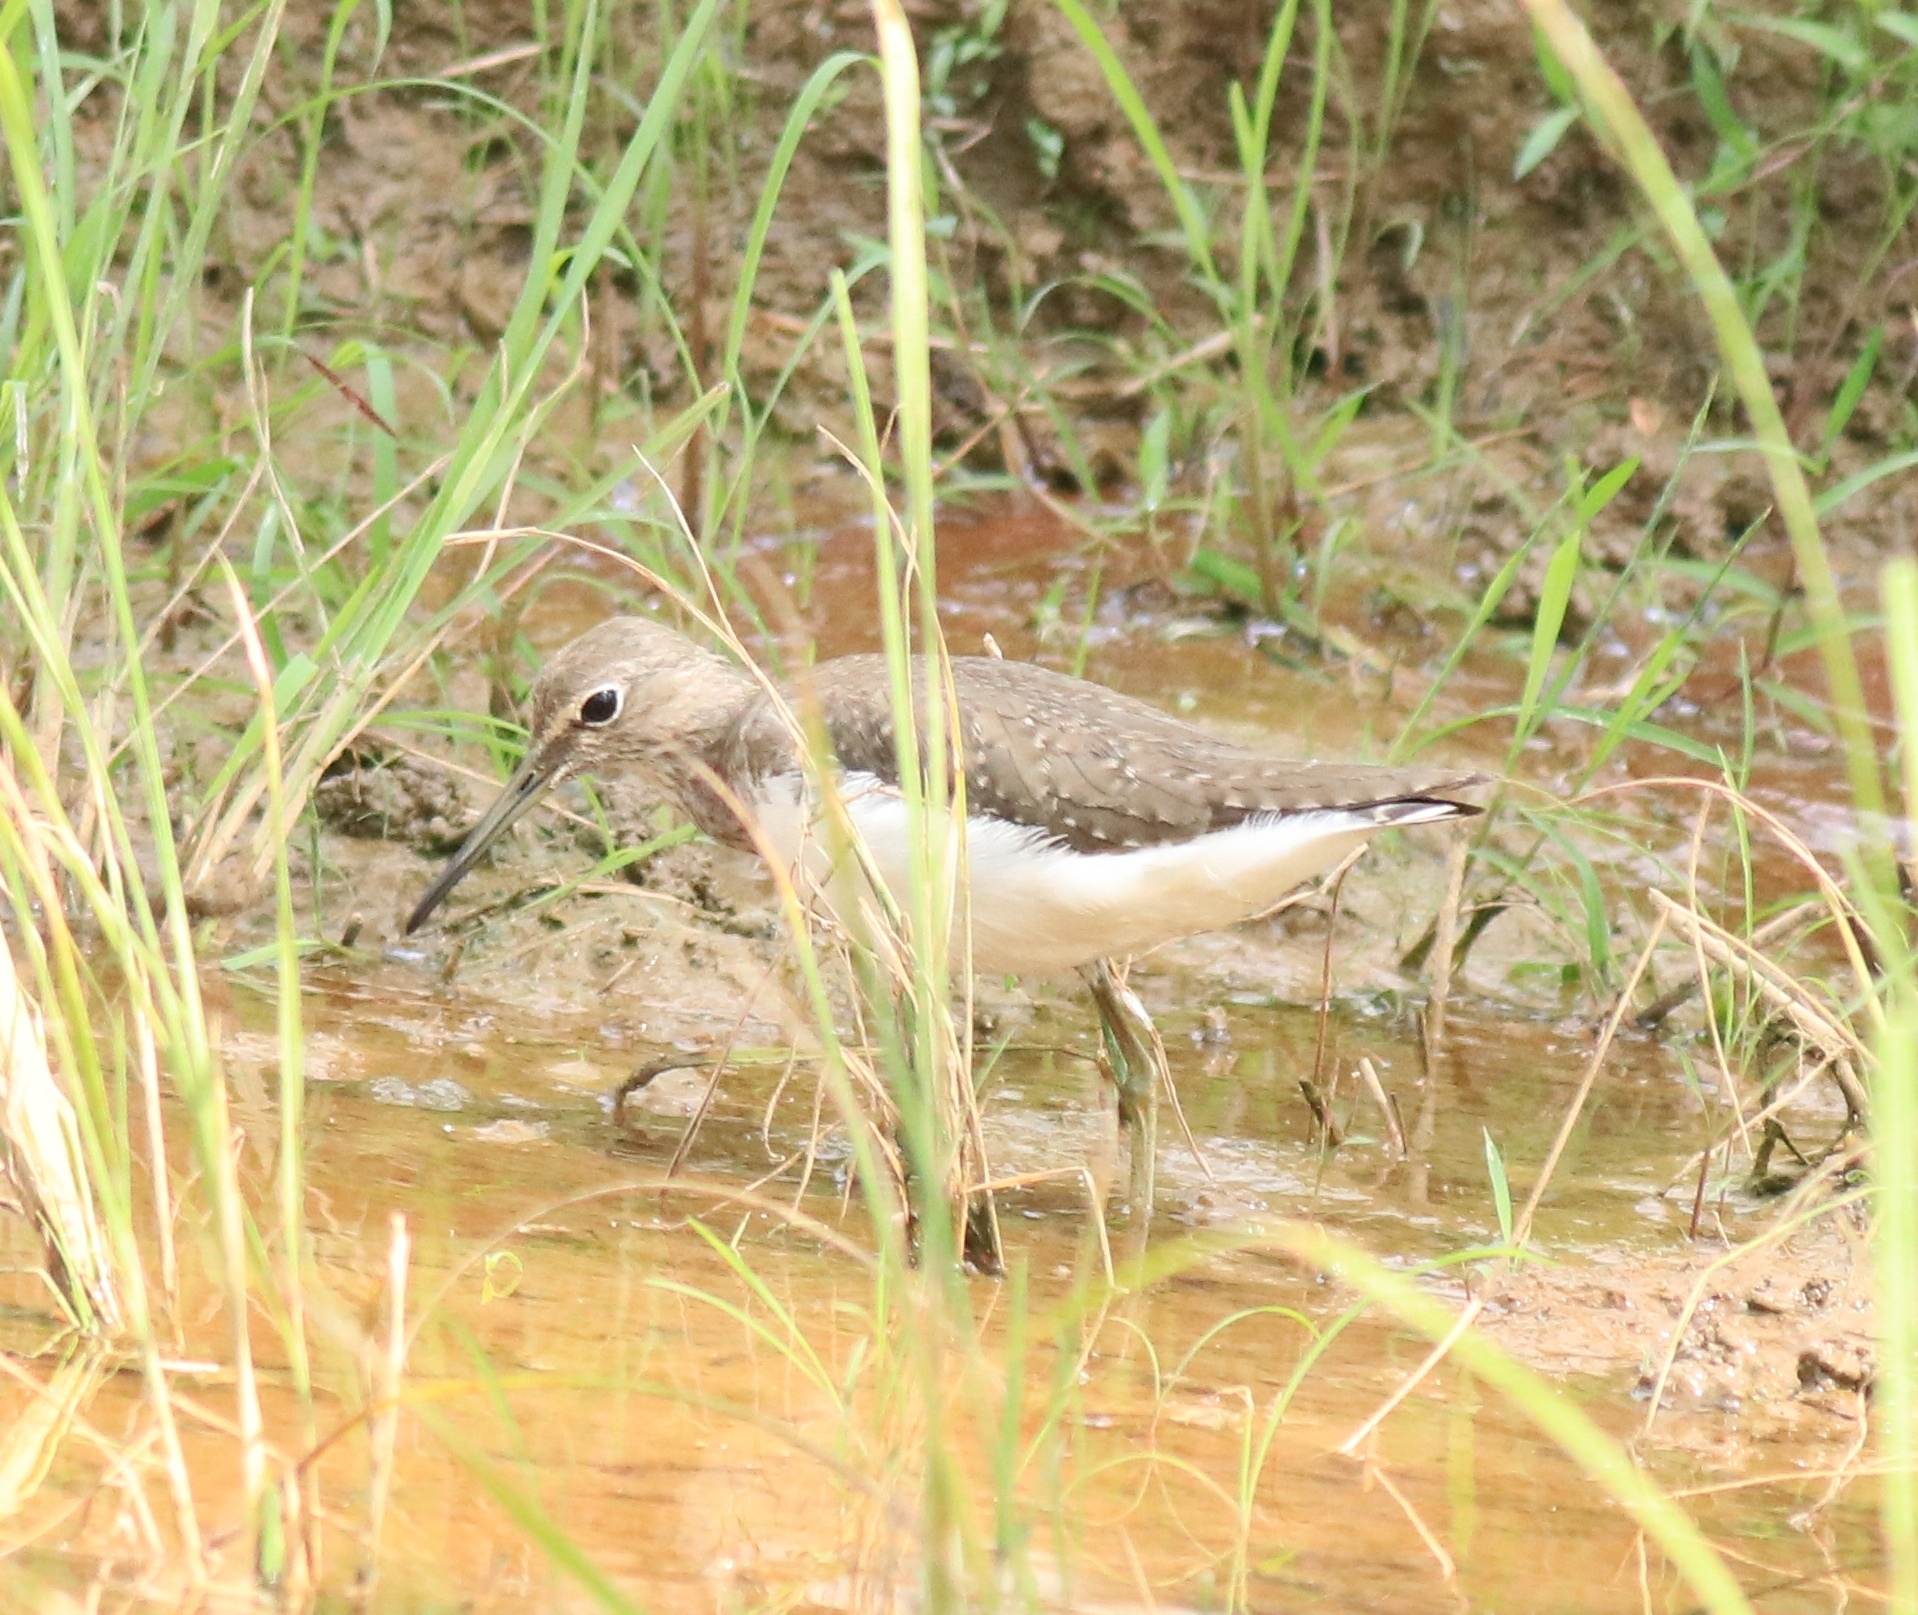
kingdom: Animalia
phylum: Chordata
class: Aves
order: Charadriiformes
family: Scolopacidae
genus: Tringa
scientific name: Tringa ochropus
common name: Green sandpiper
